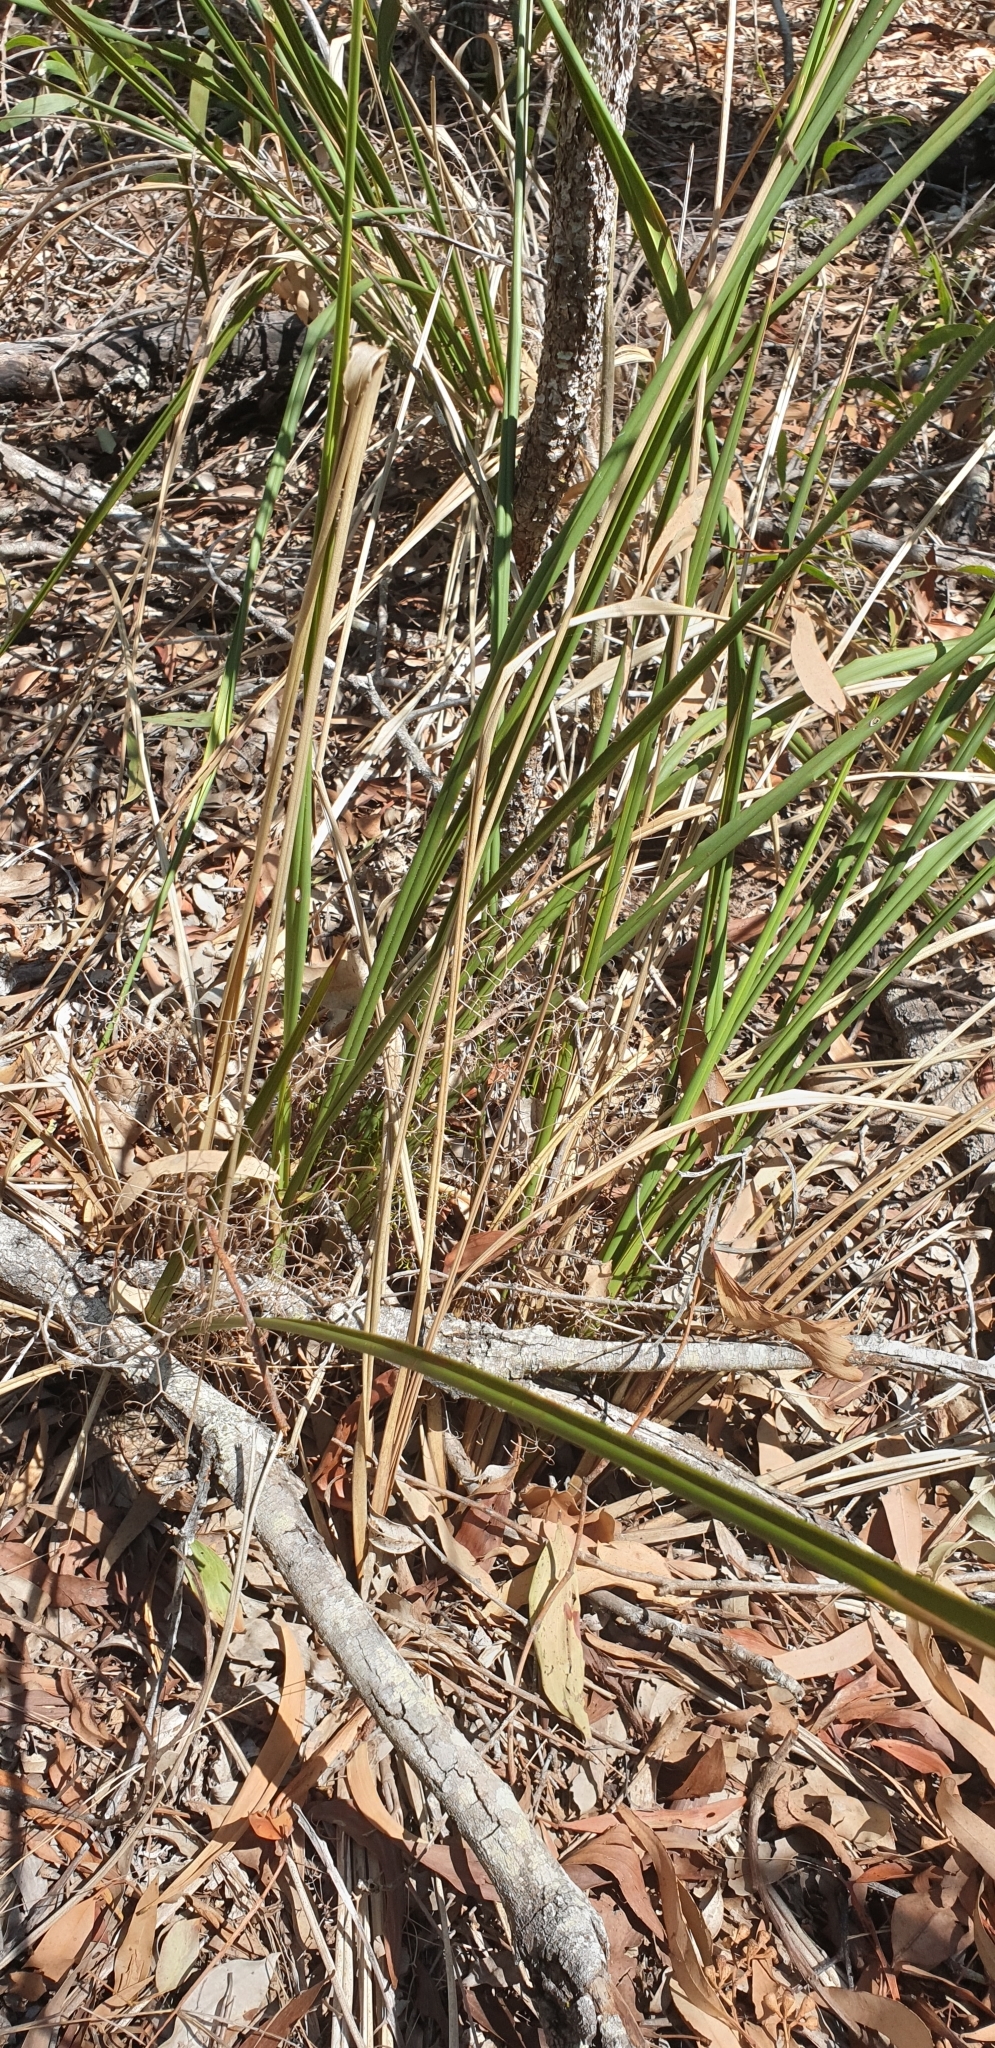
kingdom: Plantae
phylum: Tracheophyta
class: Liliopsida
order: Asparagales
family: Asphodelaceae
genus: Dianella
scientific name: Dianella brevipedunculata
